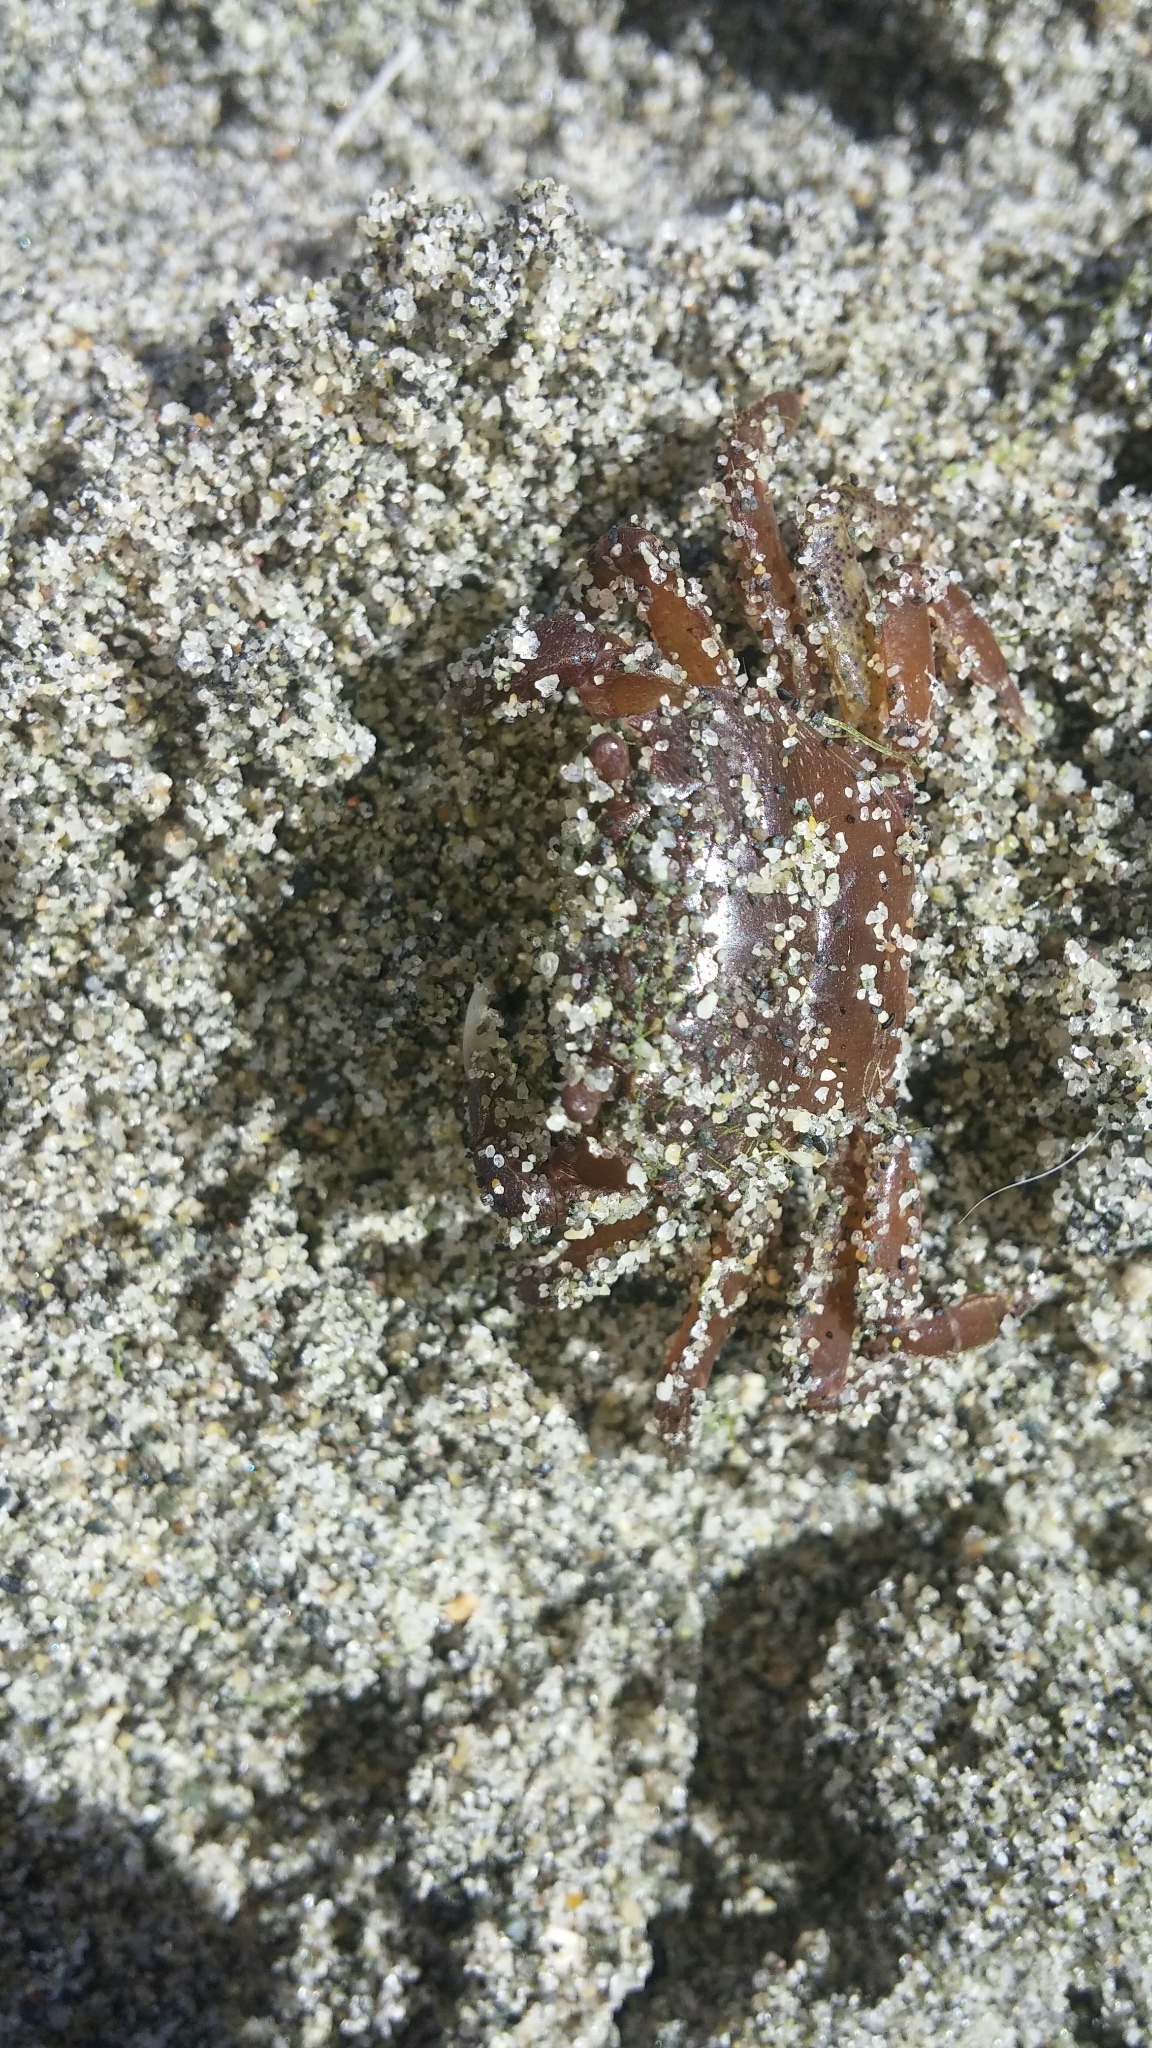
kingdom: Animalia
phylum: Arthropoda
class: Malacostraca
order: Decapoda
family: Varunidae
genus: Hemigrapsus
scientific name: Hemigrapsus oregonensis
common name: Yellow shore crab
